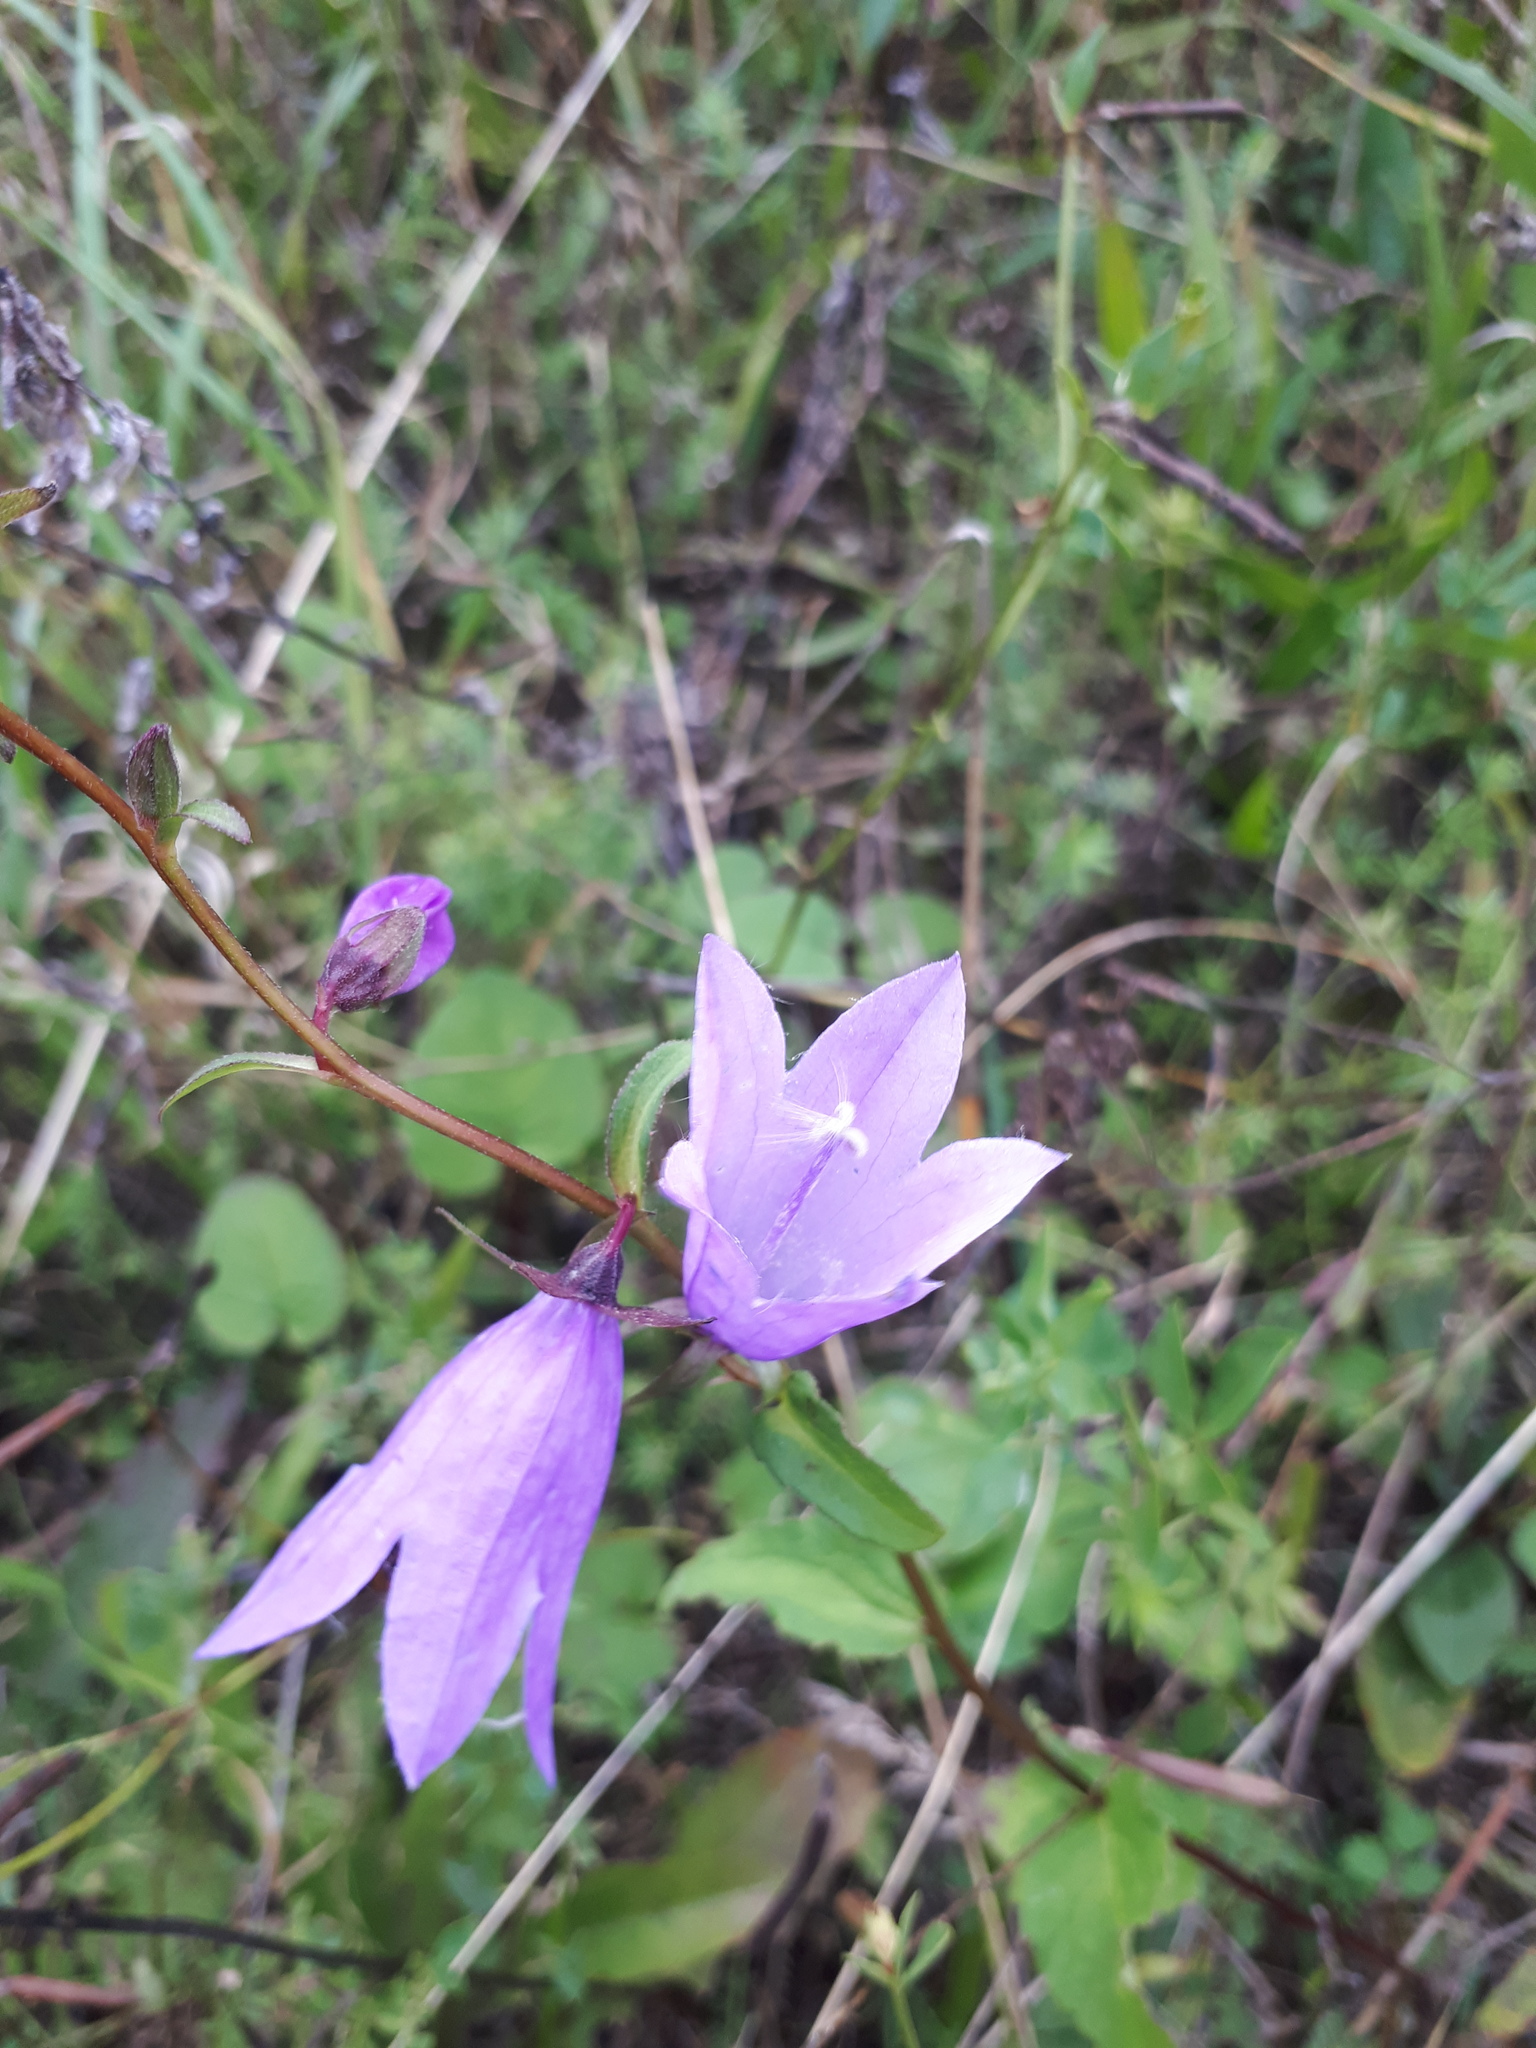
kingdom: Plantae
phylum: Tracheophyta
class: Magnoliopsida
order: Asterales
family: Campanulaceae
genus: Campanula
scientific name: Campanula rapunculoides
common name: Creeping bellflower
